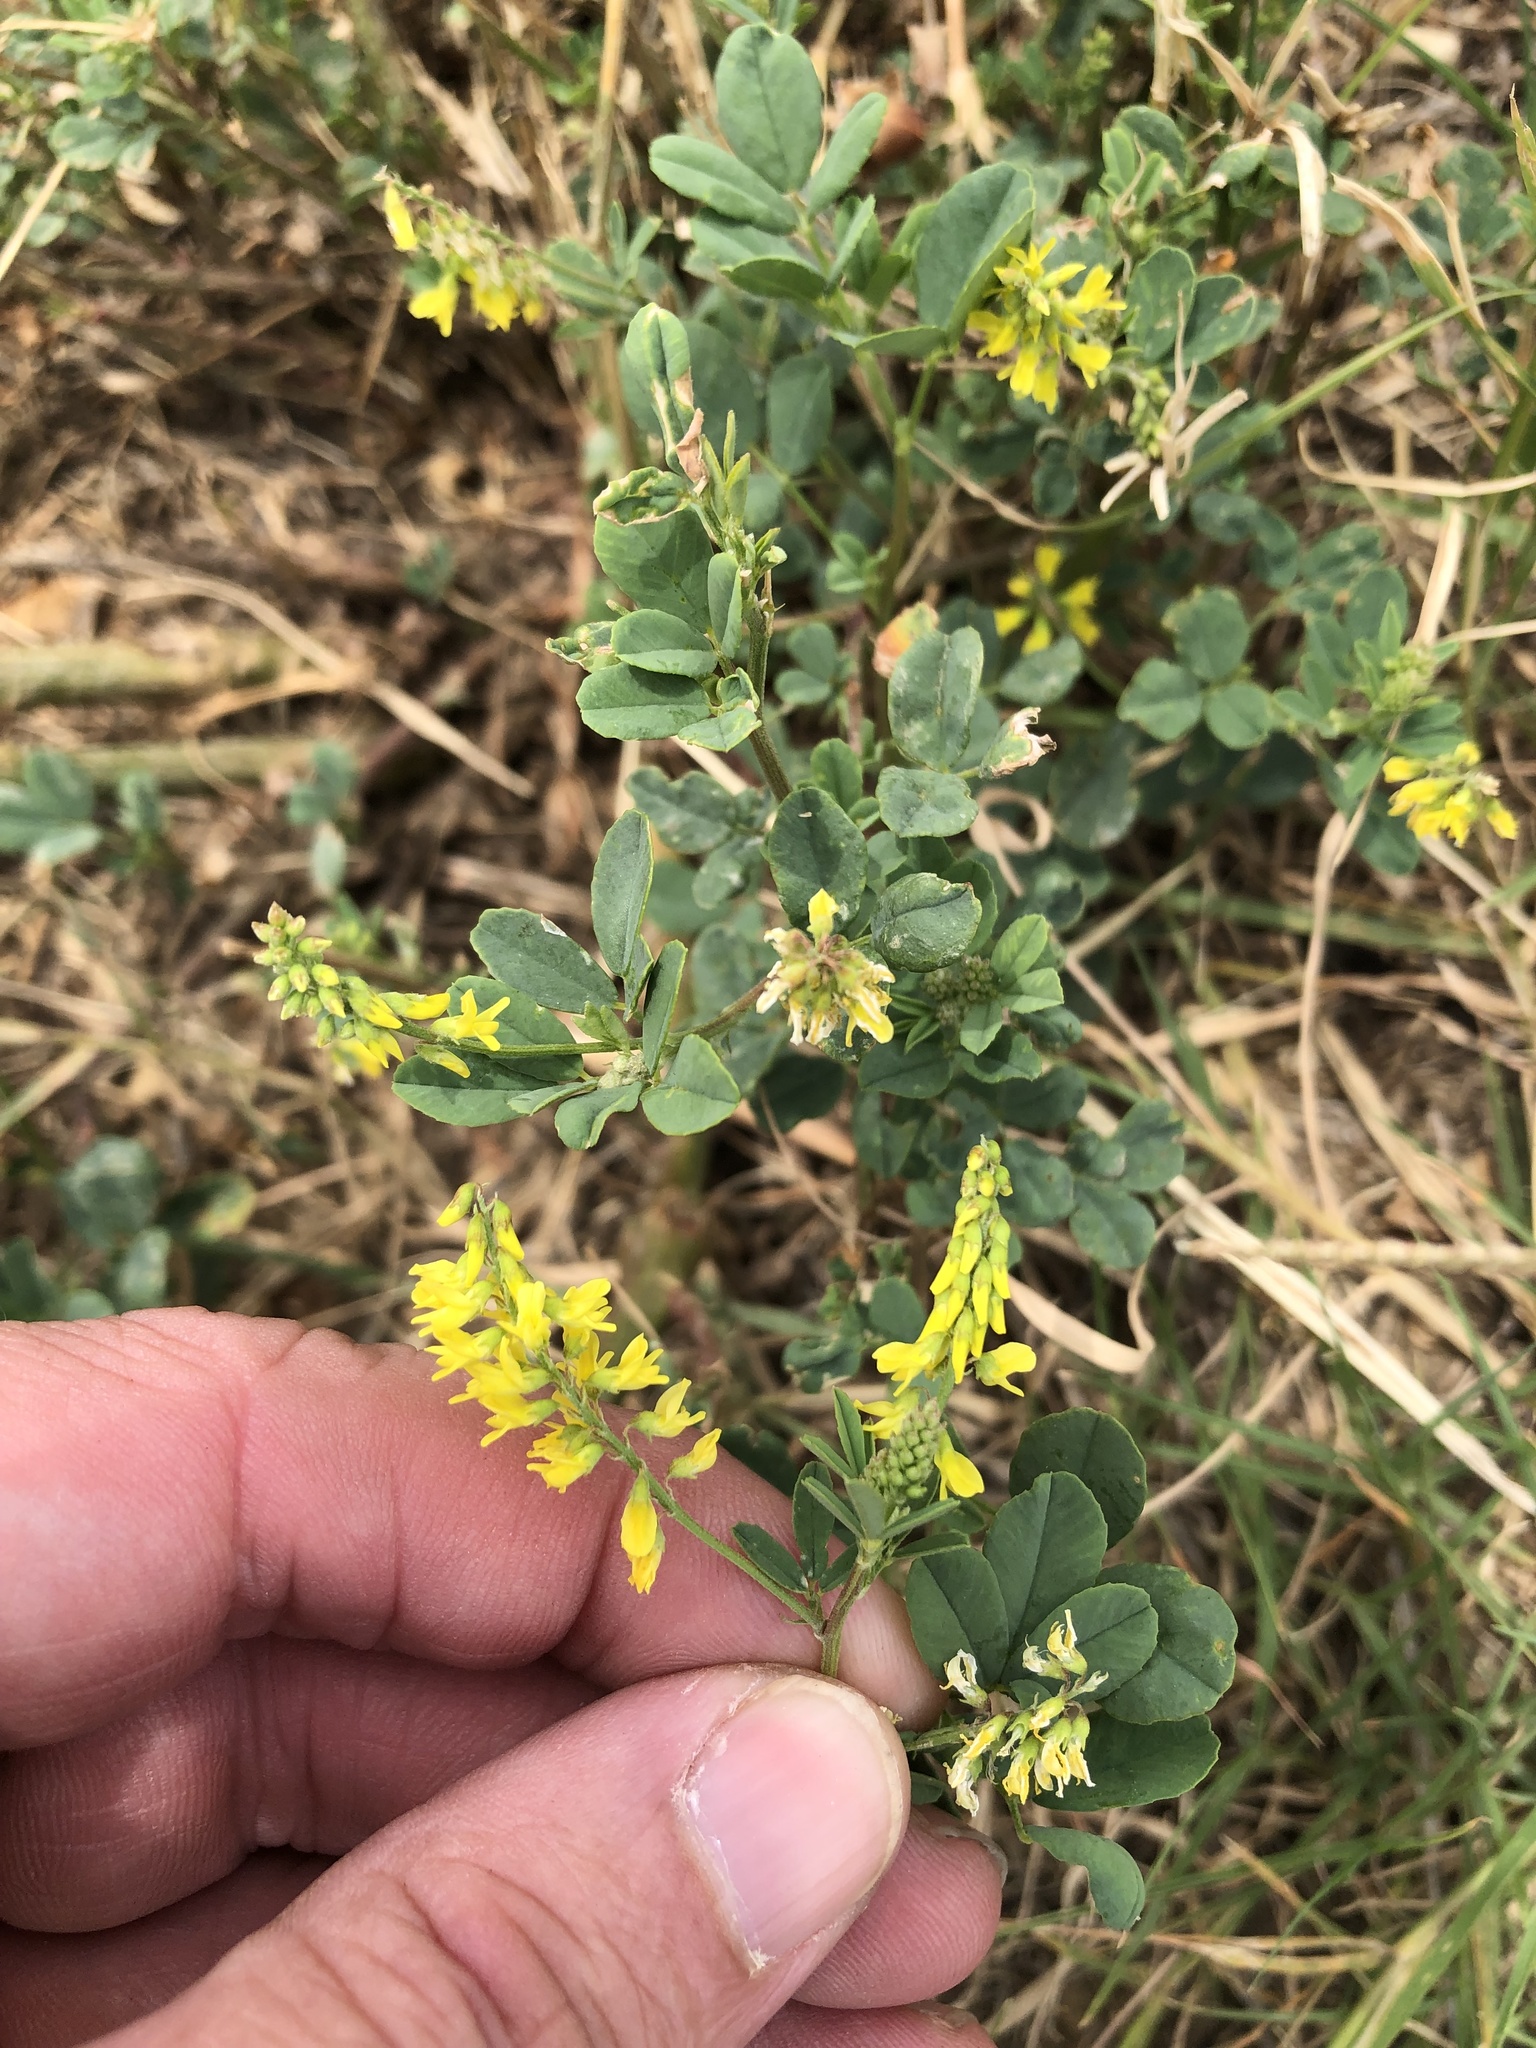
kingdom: Plantae
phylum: Tracheophyta
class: Magnoliopsida
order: Fabales
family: Fabaceae
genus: Melilotus
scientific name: Melilotus officinalis
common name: Sweetclover
